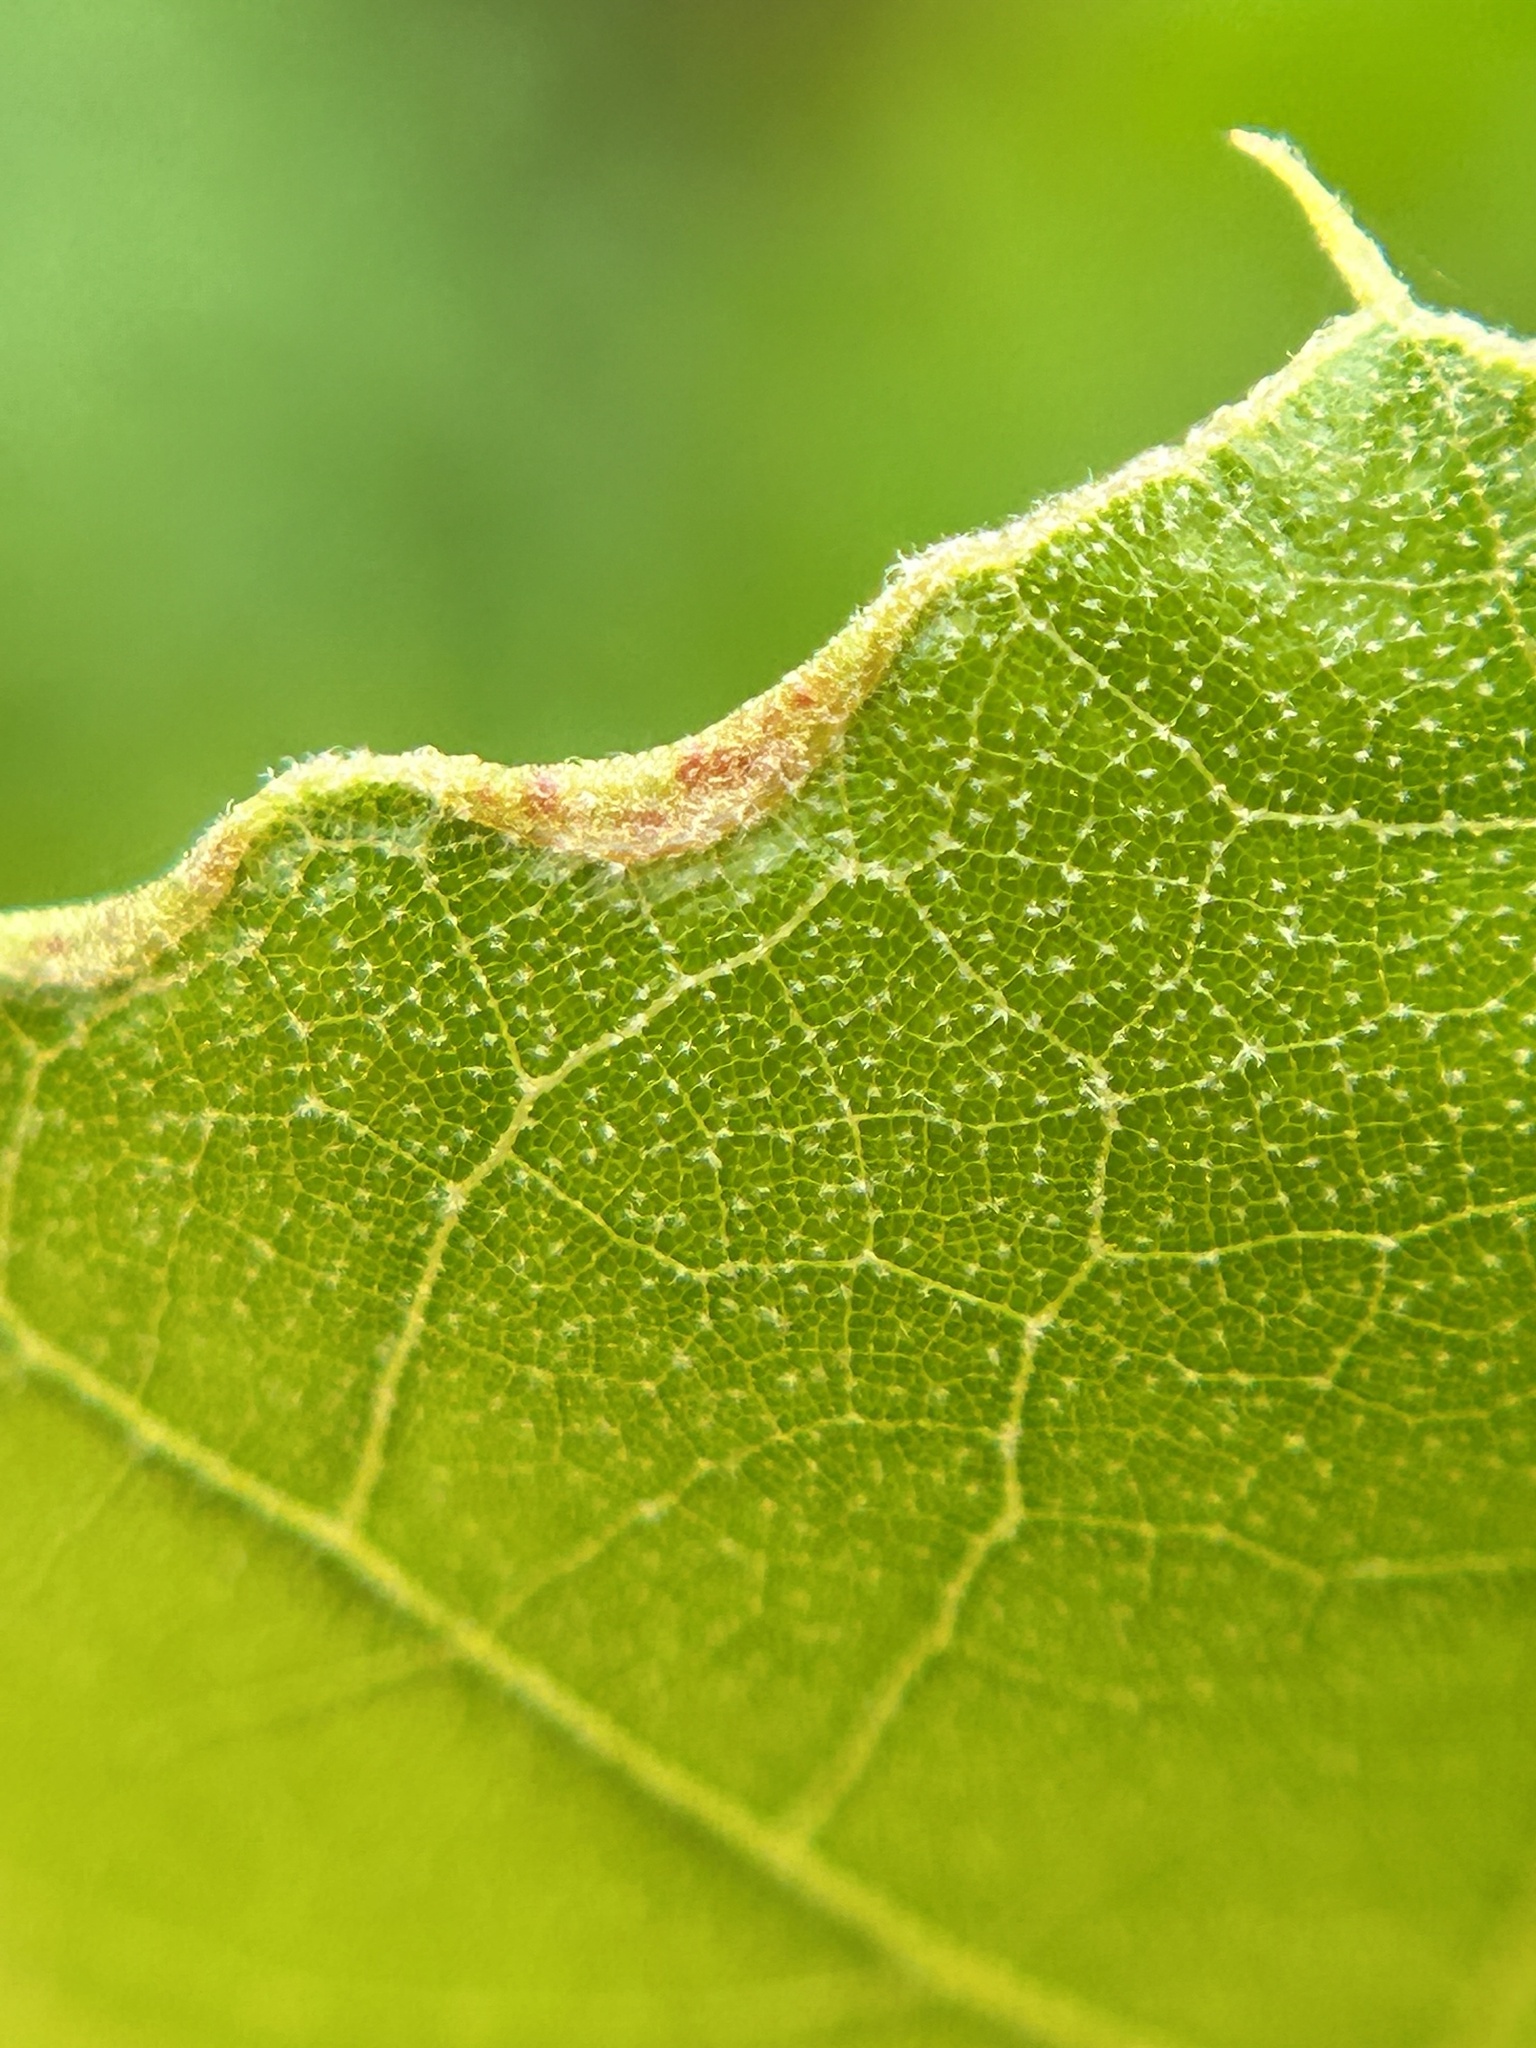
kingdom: Animalia
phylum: Arthropoda
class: Insecta
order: Diptera
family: Cecidomyiidae
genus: Macrodiplosis
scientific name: Macrodiplosis erubescens
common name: Marginal leaf fold gall midge
